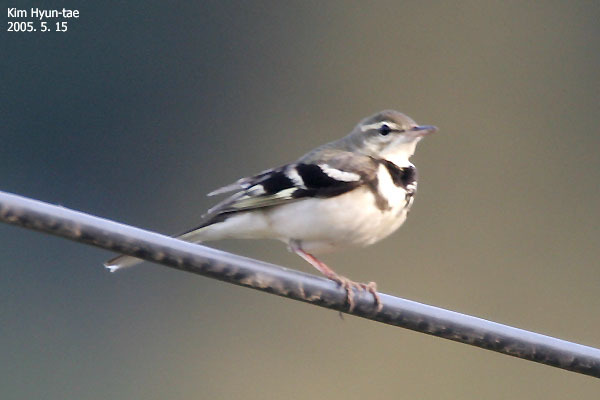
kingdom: Animalia
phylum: Chordata
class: Aves
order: Passeriformes
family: Motacillidae
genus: Dendronanthus
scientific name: Dendronanthus indicus
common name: Forest wagtail
